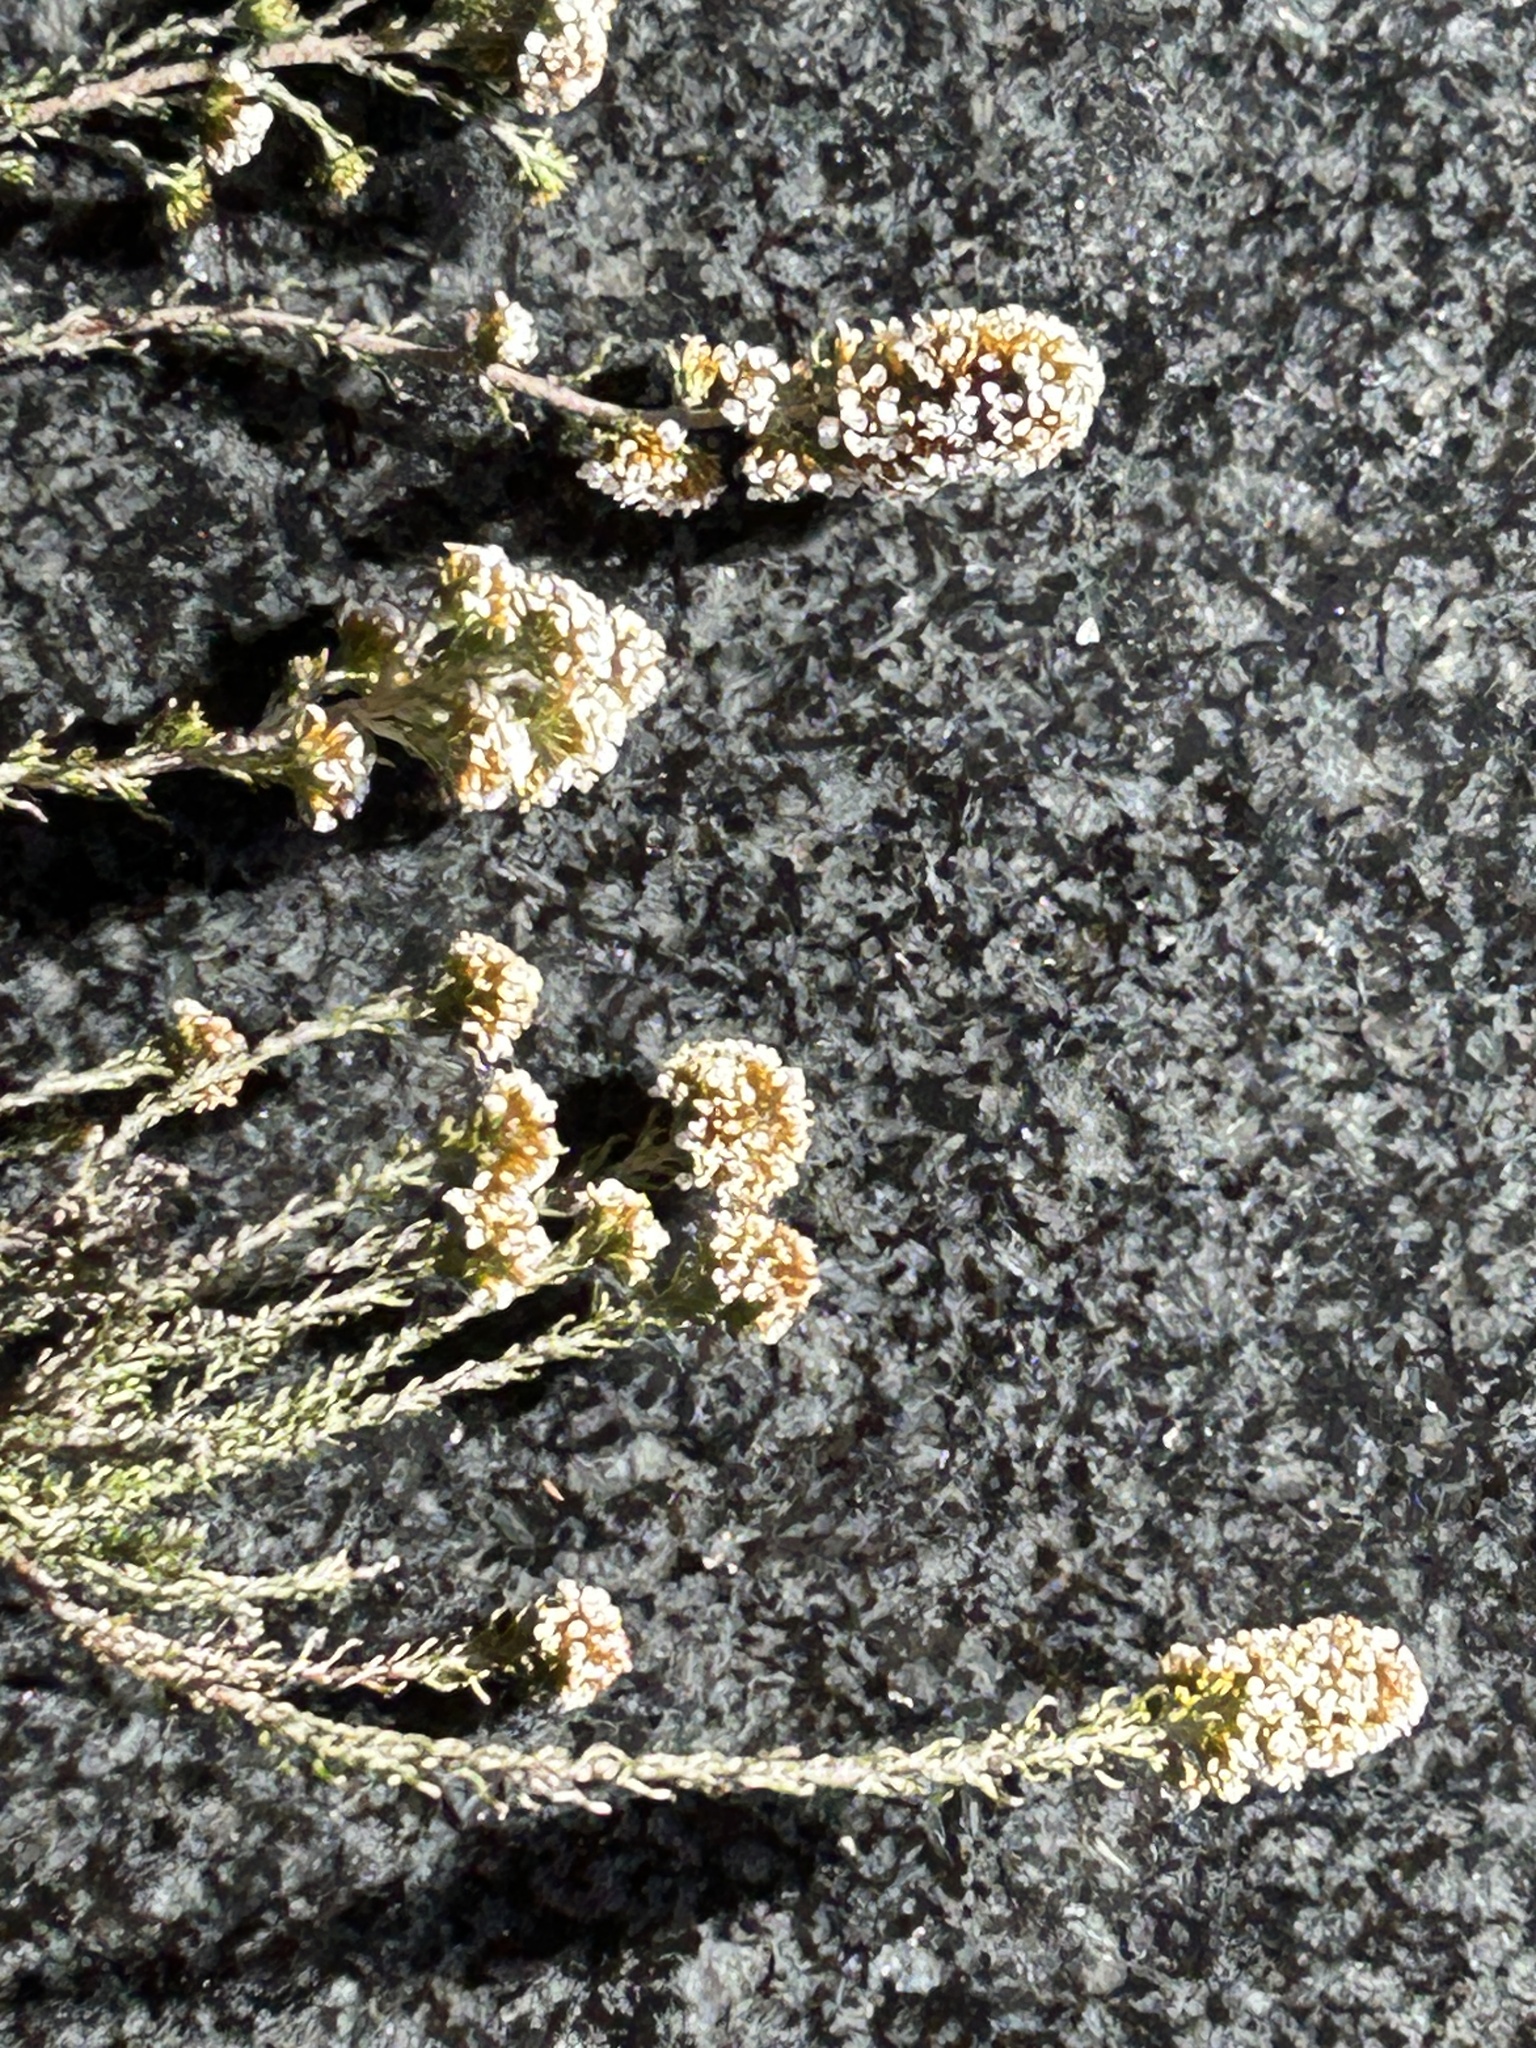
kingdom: Plantae
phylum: Tracheophyta
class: Magnoliopsida
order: Asterales
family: Asteraceae
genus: Disparago
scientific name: Disparago anomala
